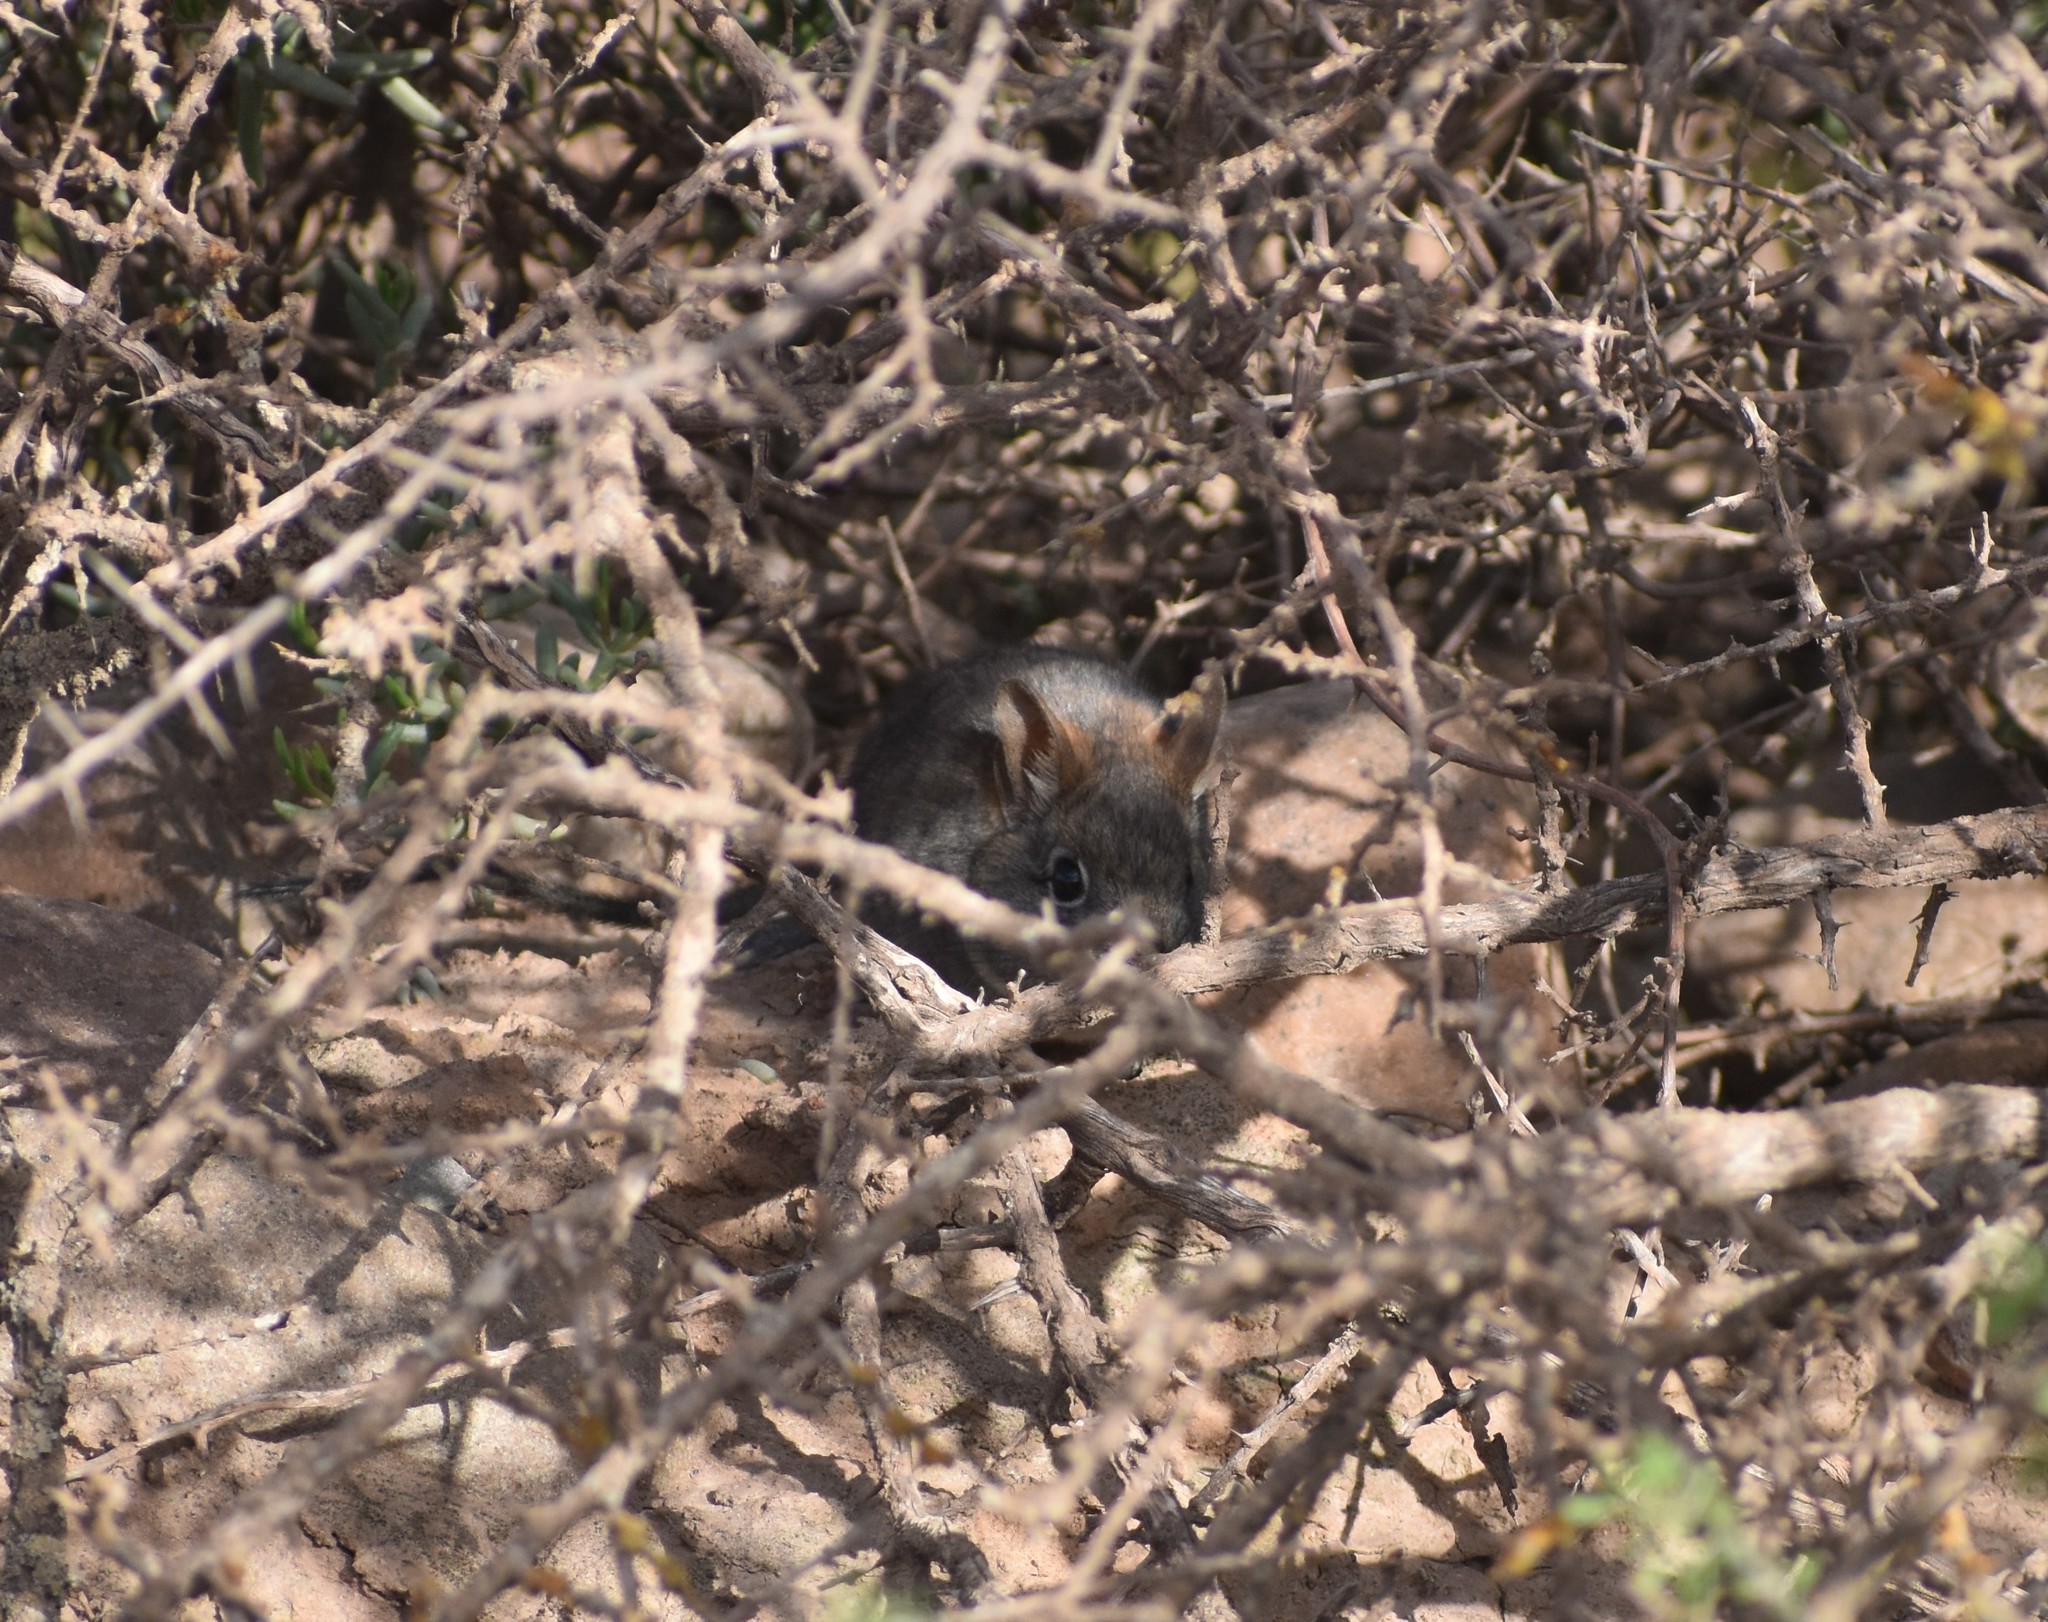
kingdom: Animalia
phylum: Chordata
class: Mammalia
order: Macroscelidea
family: Macroscelididae
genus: Elephantulus
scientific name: Elephantulus rupestris
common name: Western rock elephant shrew
